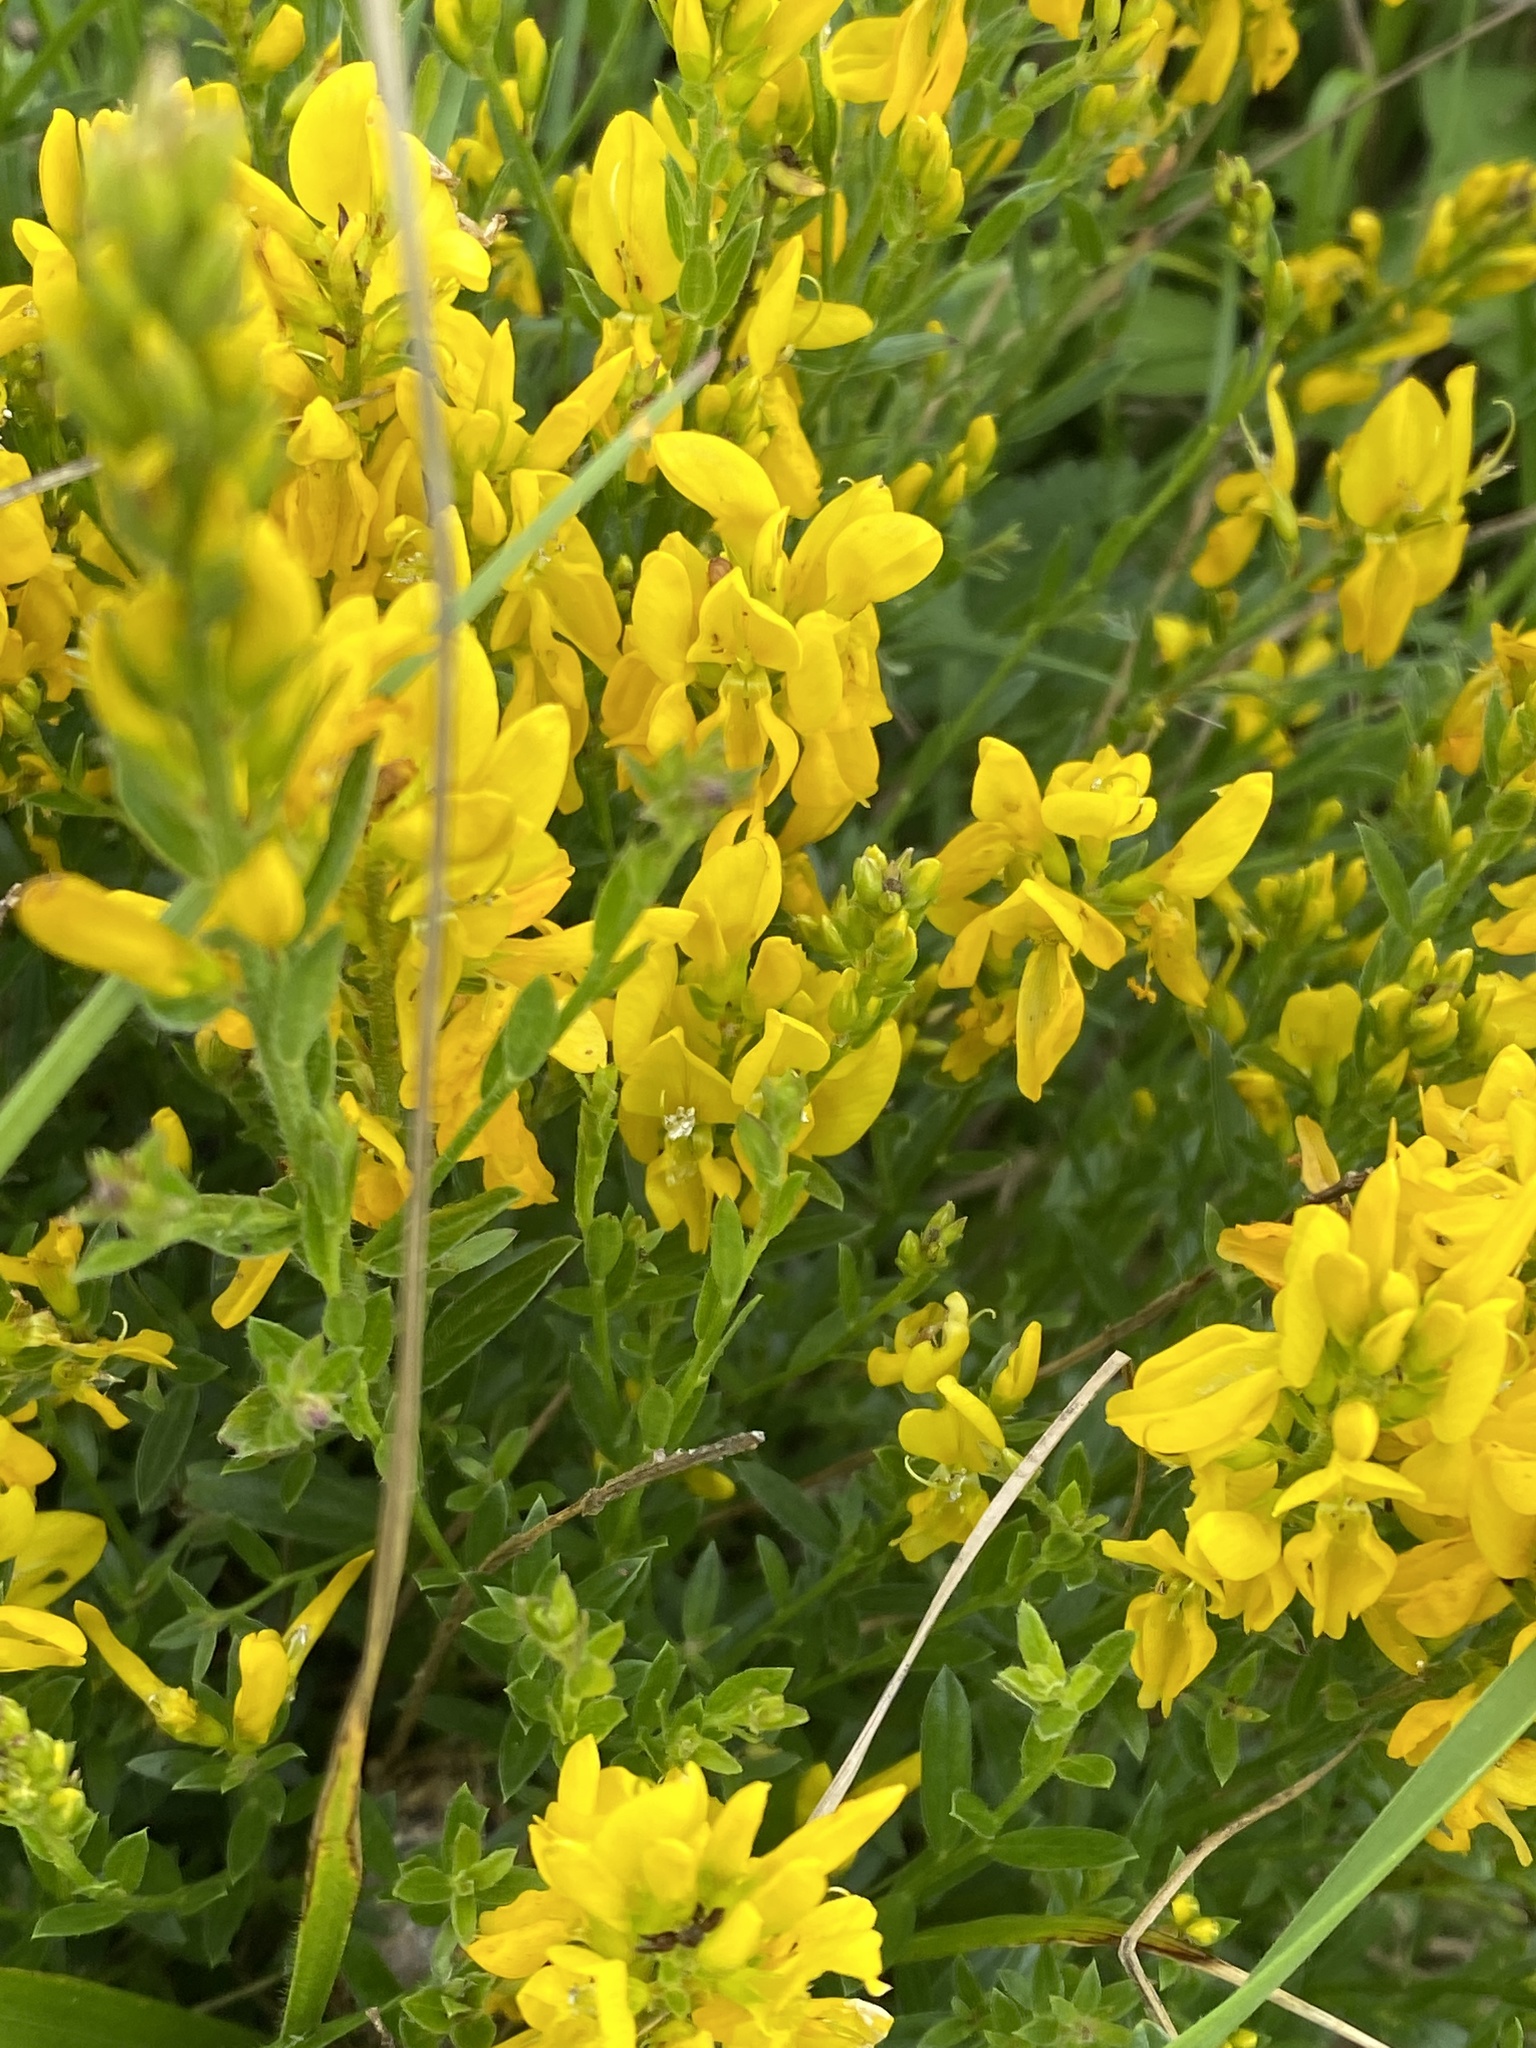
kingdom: Plantae
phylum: Tracheophyta
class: Magnoliopsida
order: Fabales
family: Fabaceae
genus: Genista
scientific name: Genista tinctoria
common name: Dyer's greenweed
